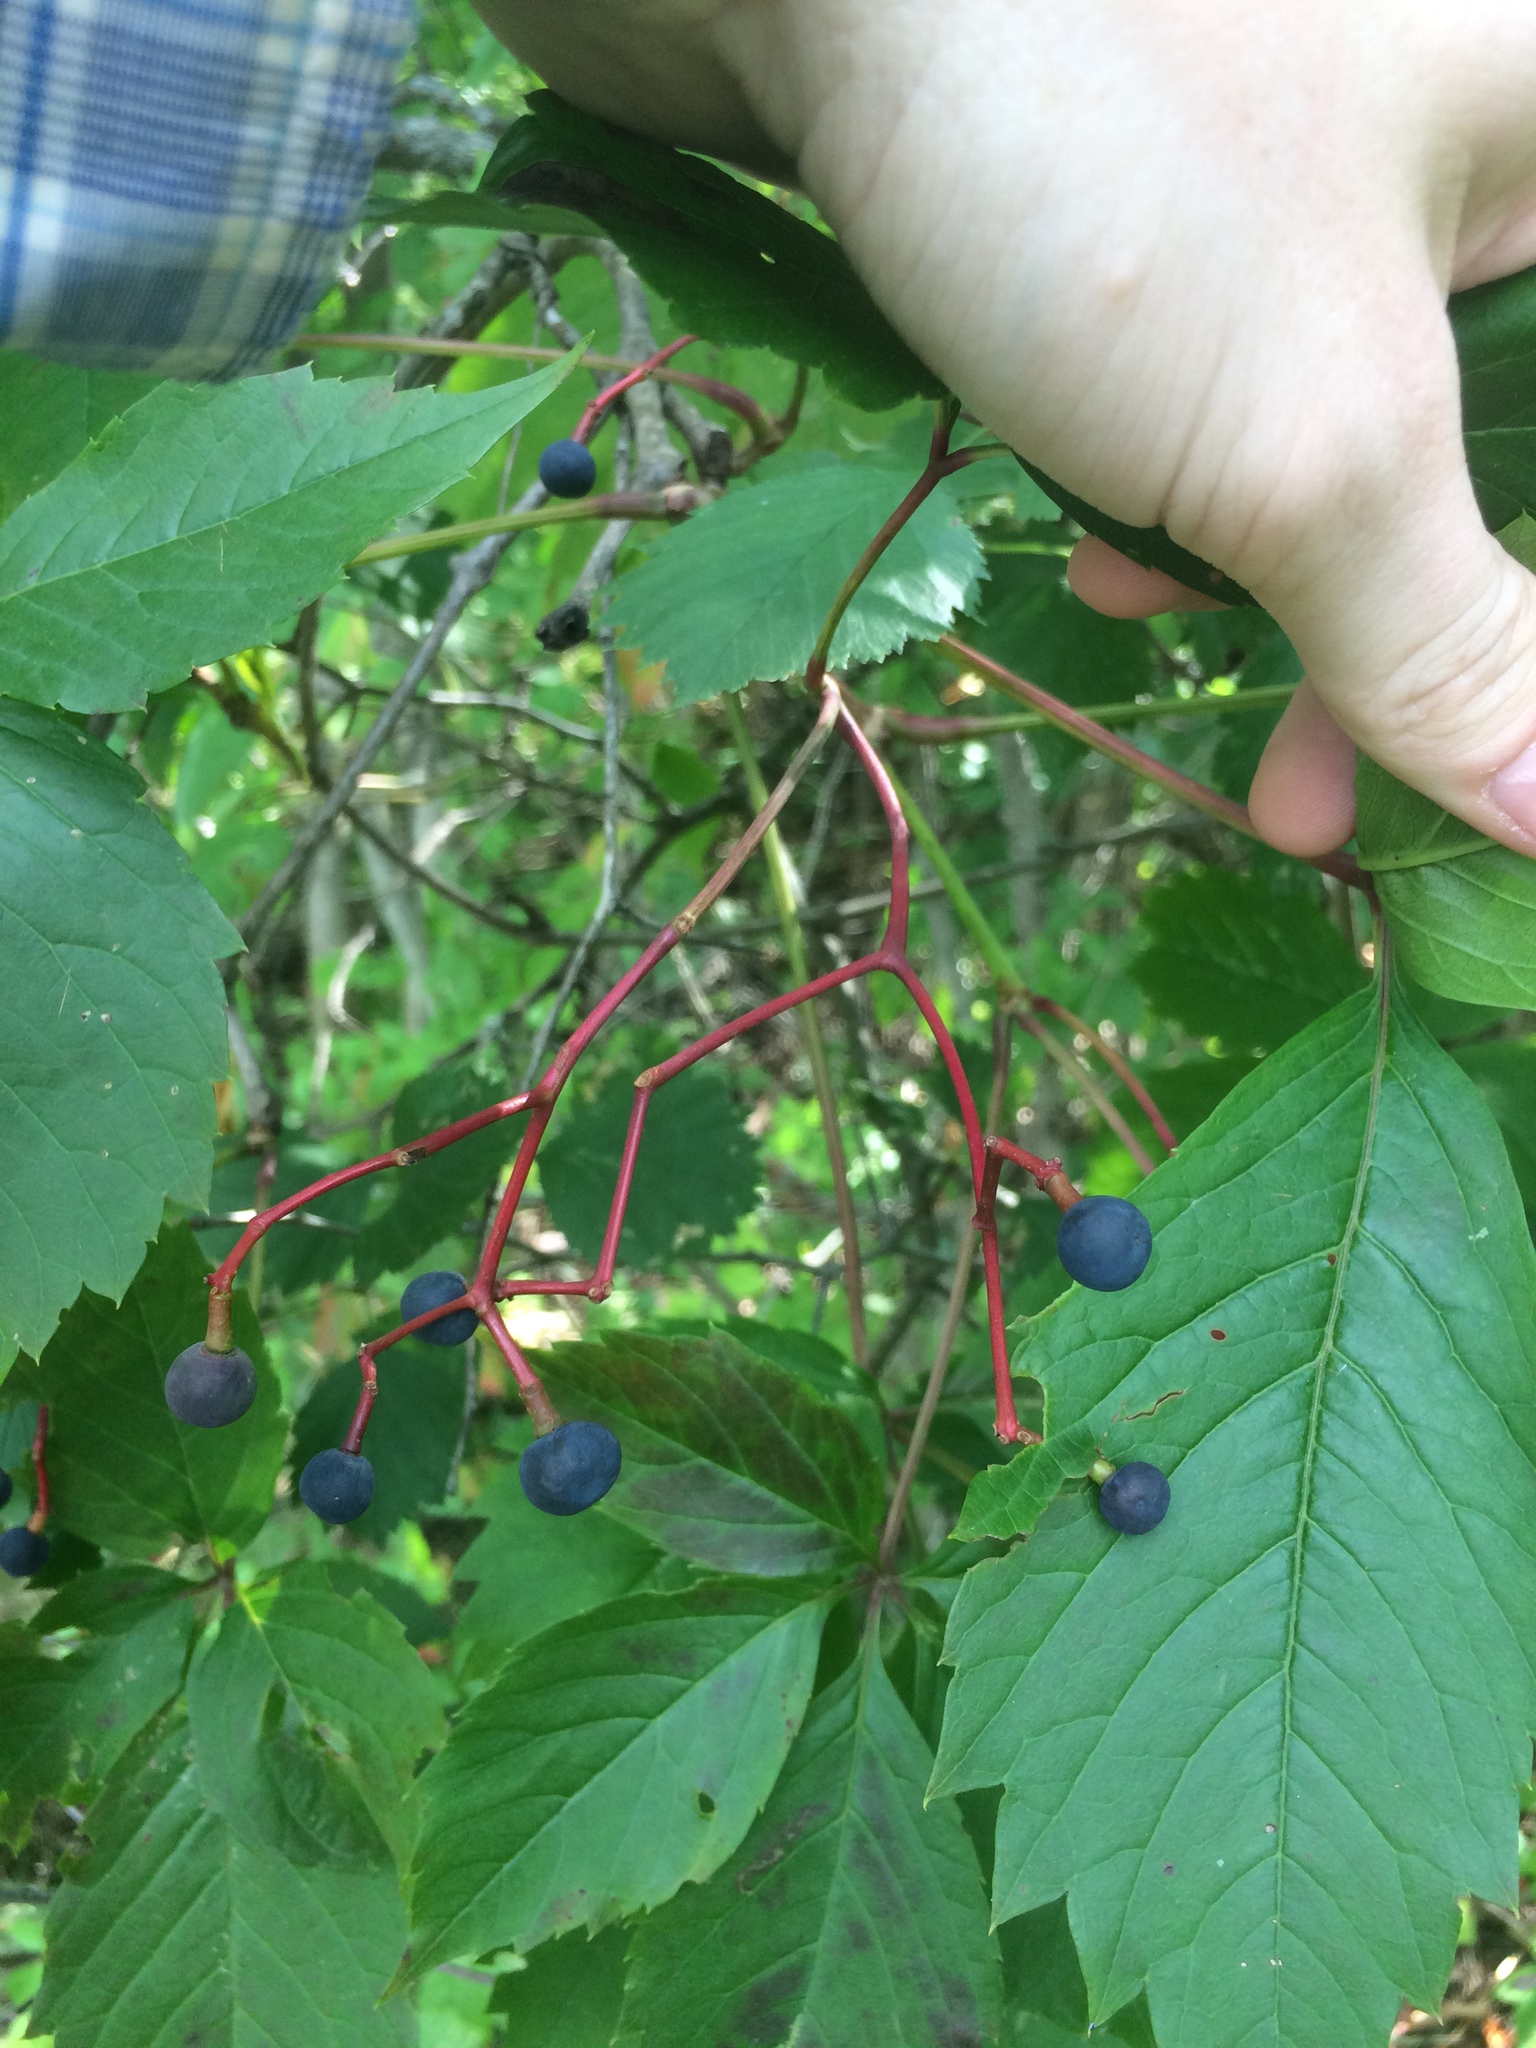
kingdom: Plantae
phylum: Tracheophyta
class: Magnoliopsida
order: Vitales
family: Vitaceae
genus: Parthenocissus
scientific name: Parthenocissus inserta
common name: False virginia-creeper
